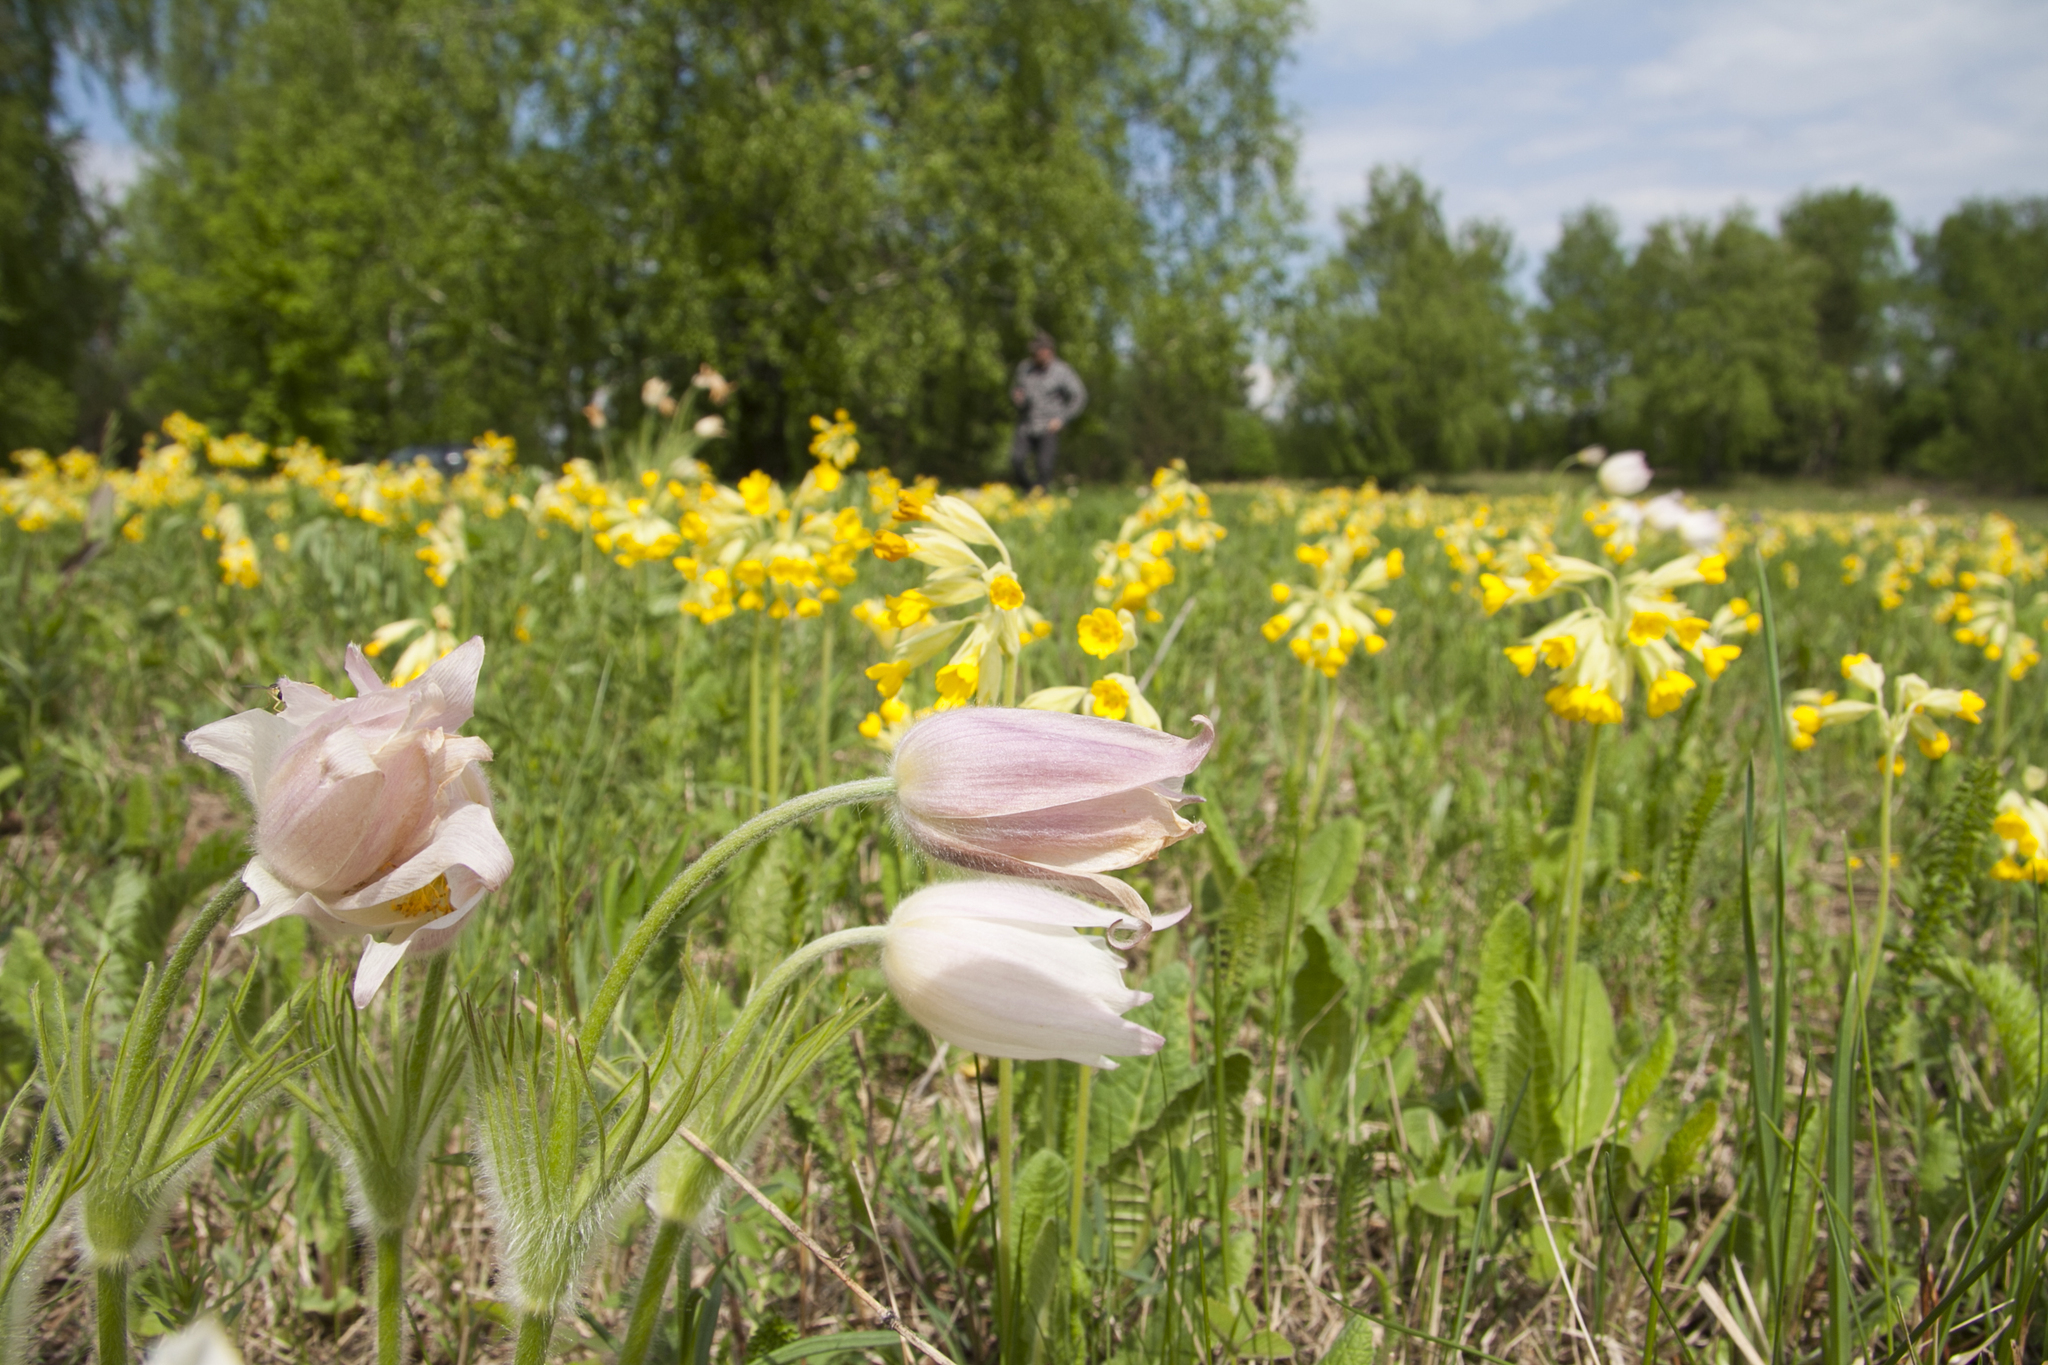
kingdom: Plantae
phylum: Tracheophyta
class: Magnoliopsida
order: Ranunculales
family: Ranunculaceae
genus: Pulsatilla
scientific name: Pulsatilla patens
